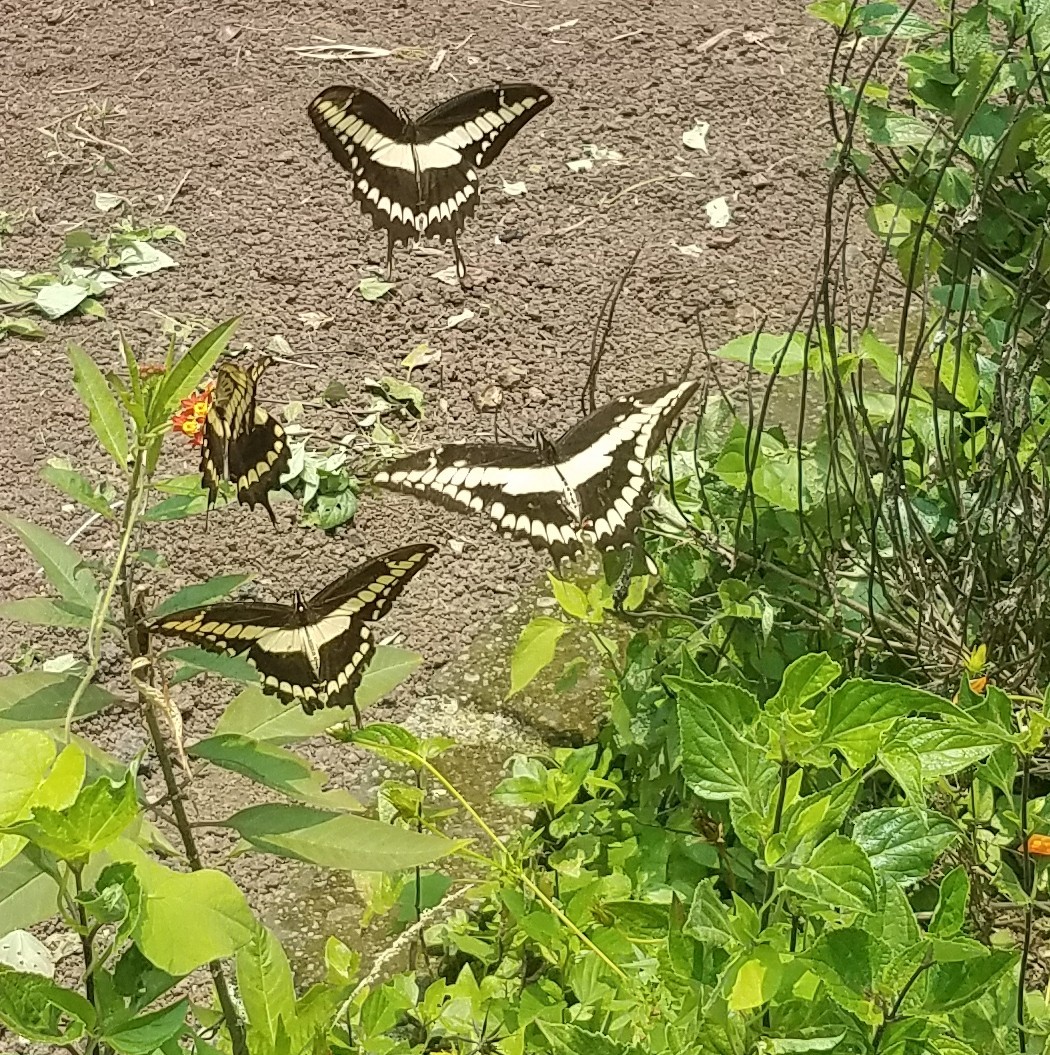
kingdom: Animalia
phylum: Arthropoda
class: Insecta
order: Lepidoptera
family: Papilionidae
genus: Papilio
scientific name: Papilio thoas
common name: King swallowtail
